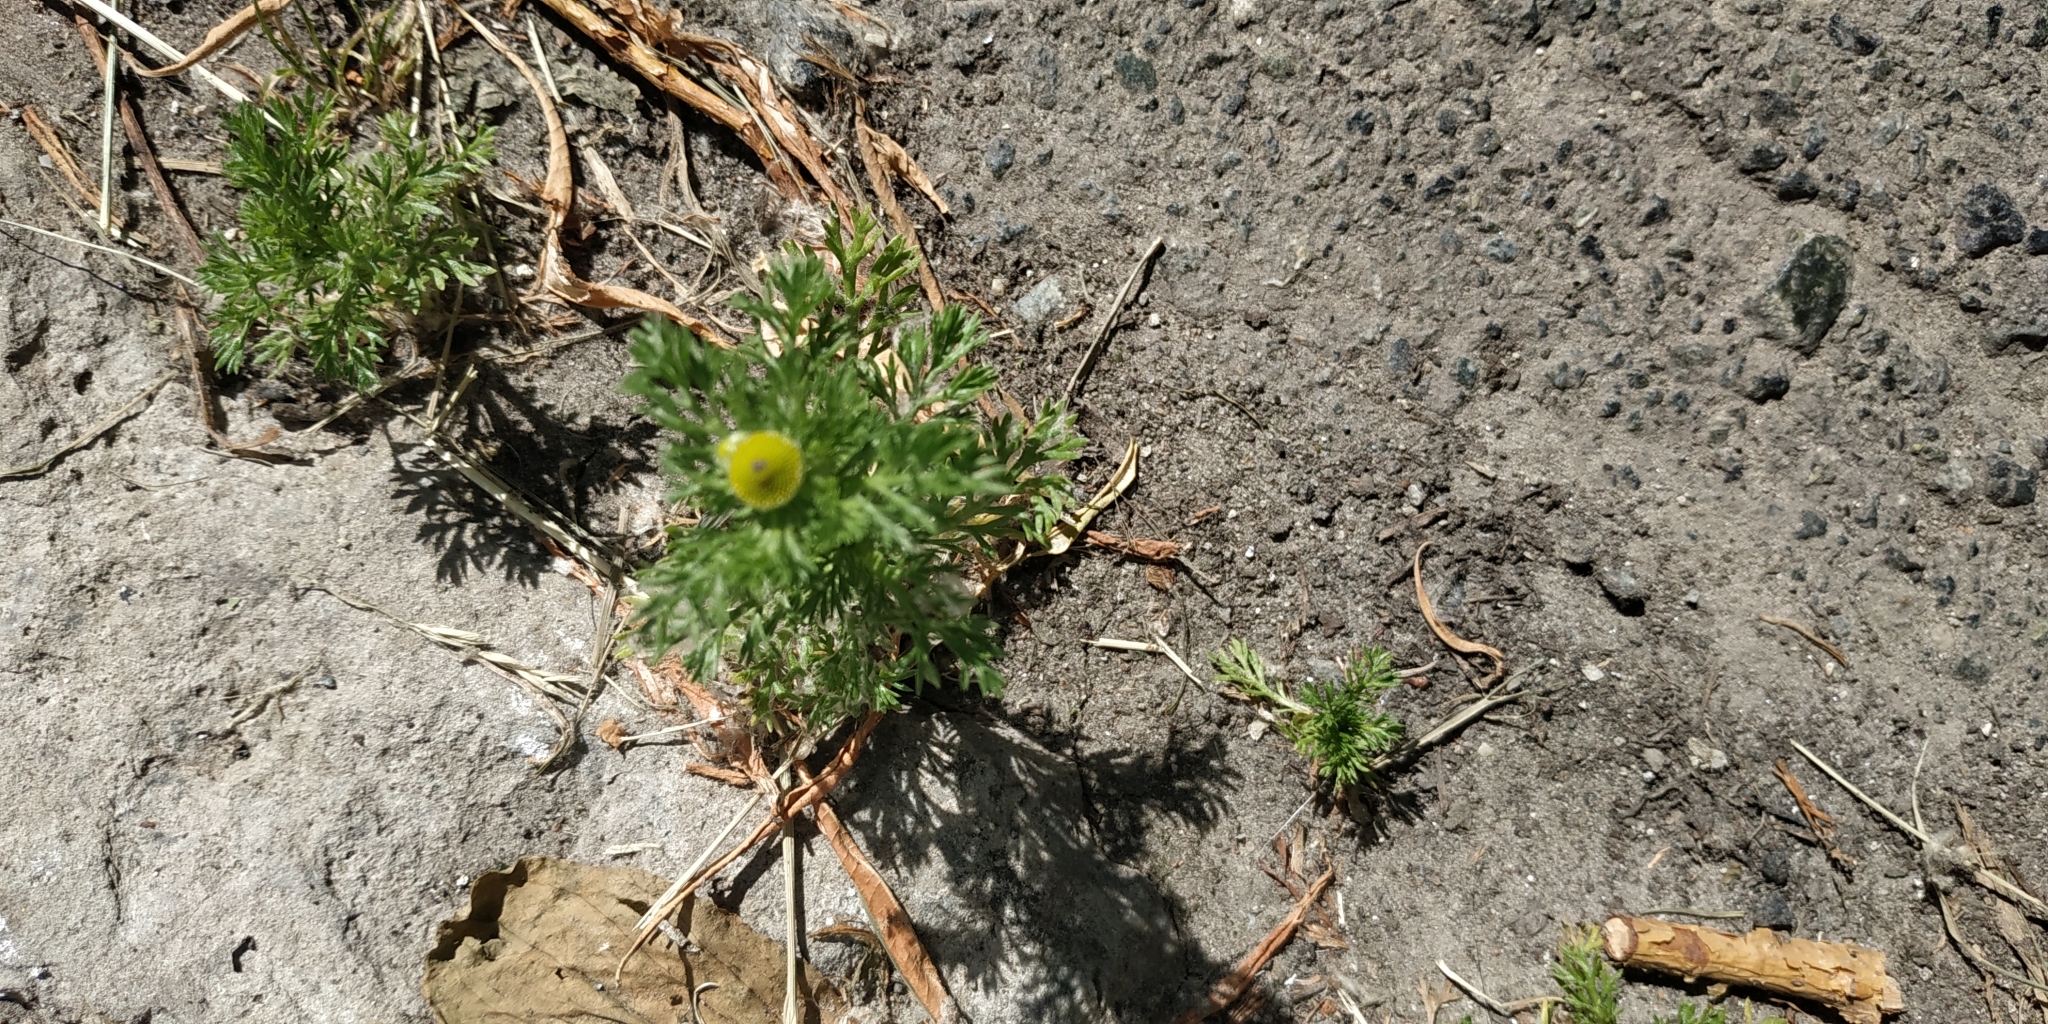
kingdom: Plantae
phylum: Tracheophyta
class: Magnoliopsida
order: Asterales
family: Asteraceae
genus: Matricaria
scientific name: Matricaria discoidea
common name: Disc mayweed
